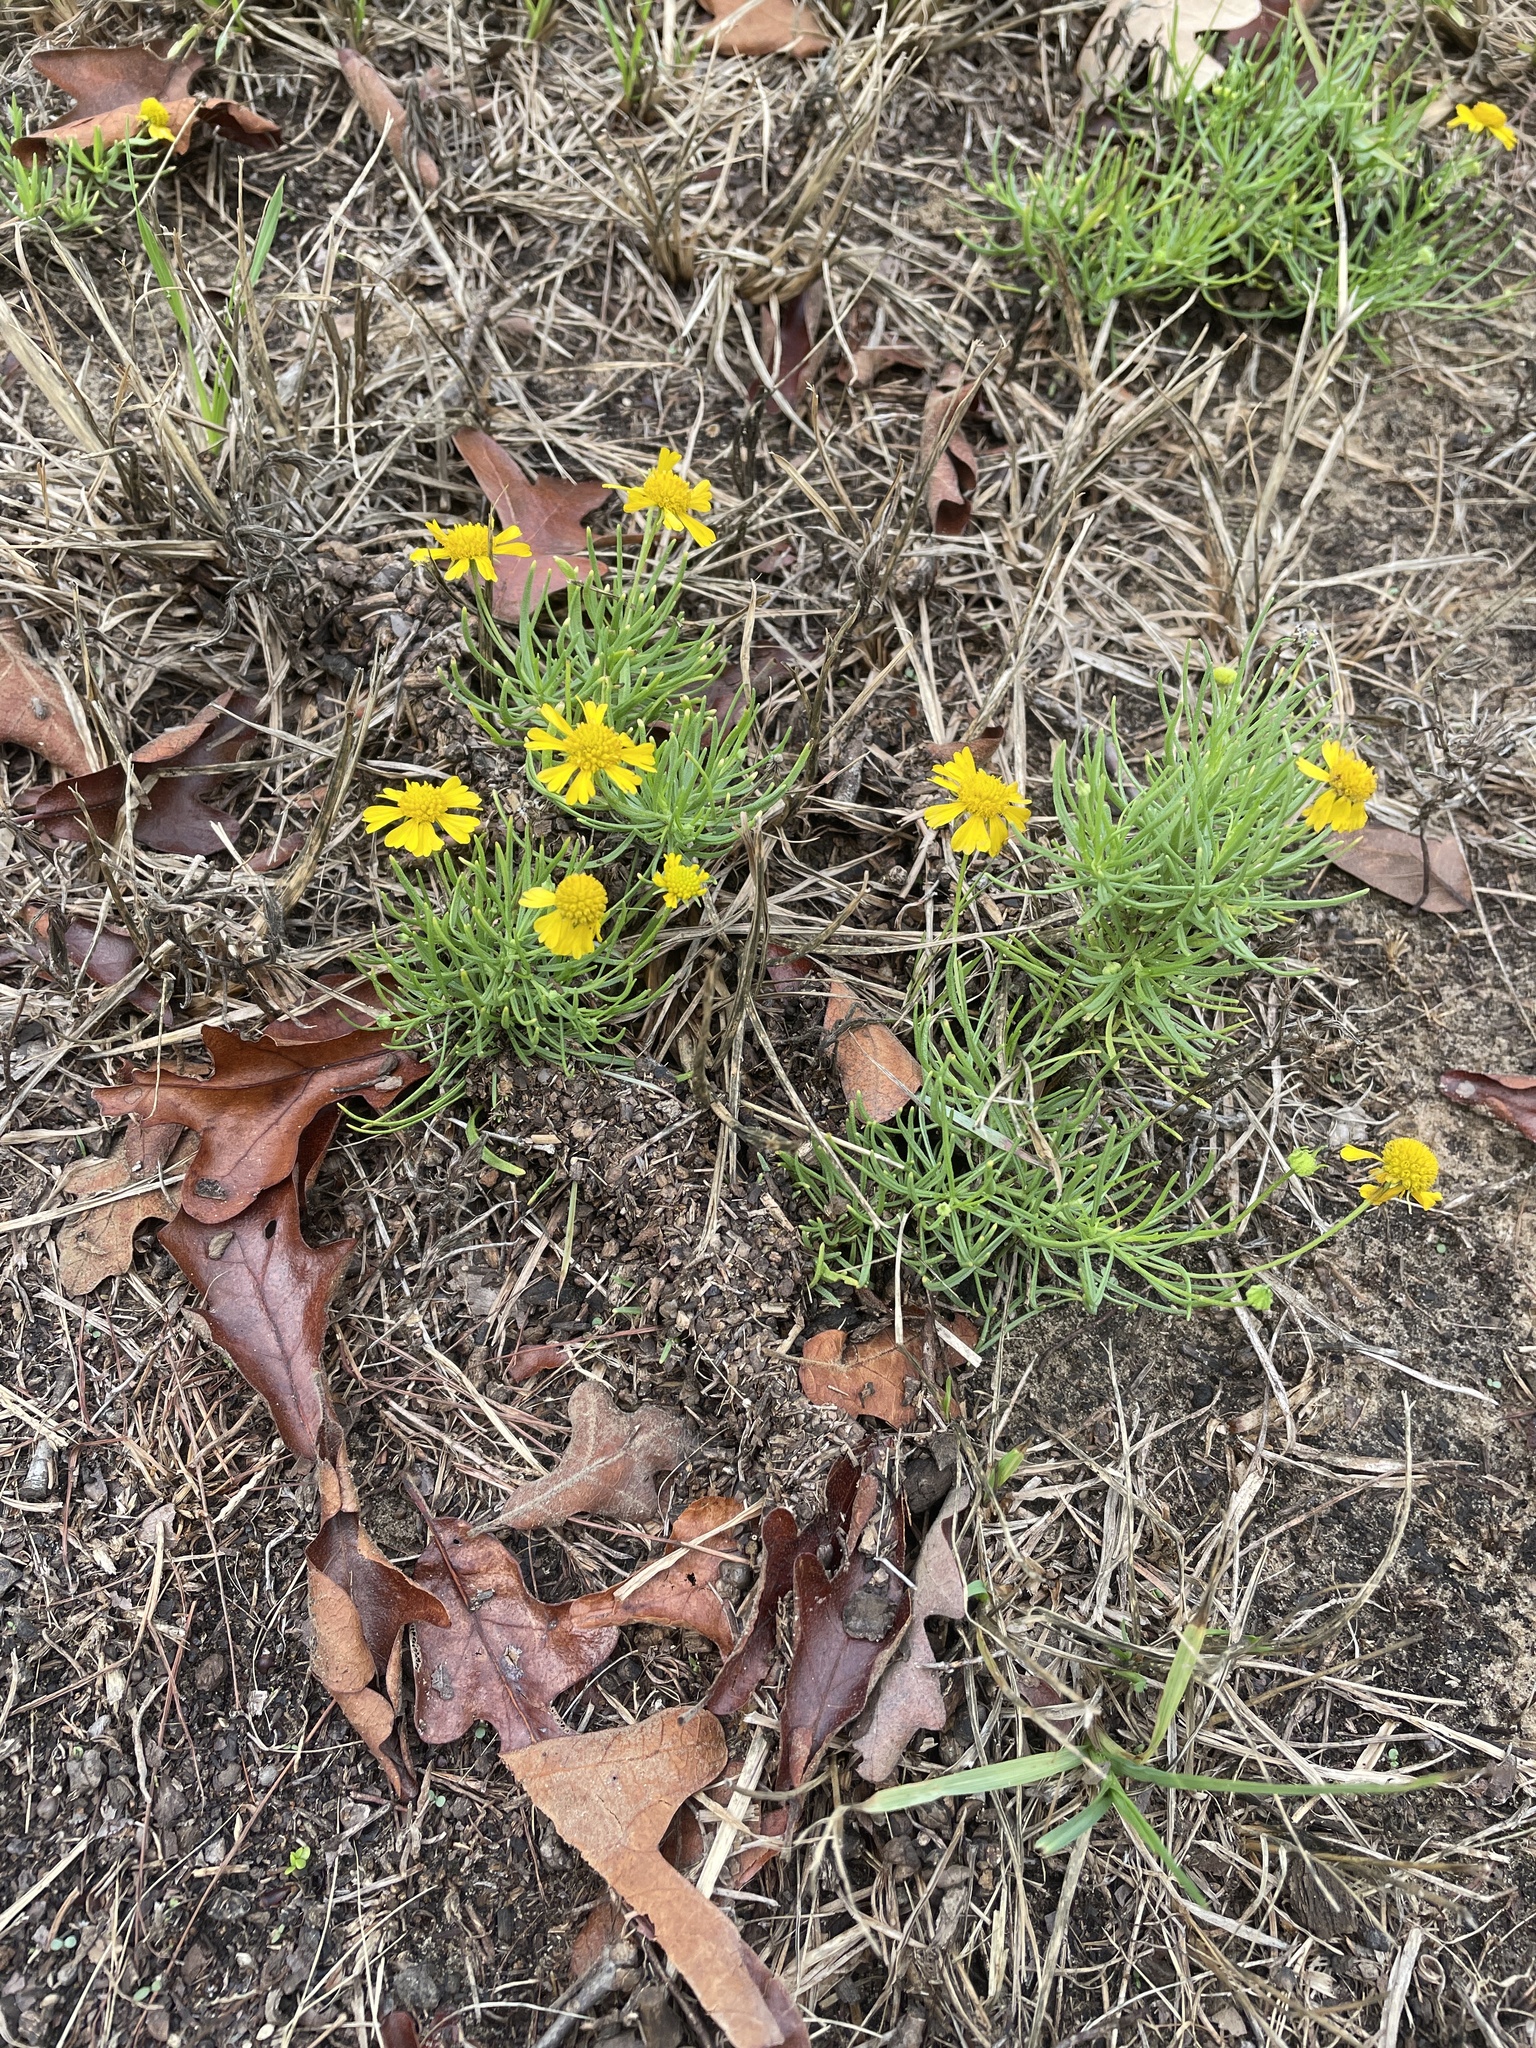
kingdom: Plantae
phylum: Tracheophyta
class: Magnoliopsida
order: Asterales
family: Asteraceae
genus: Helenium
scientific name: Helenium amarum
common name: Bitter sneezeweed
